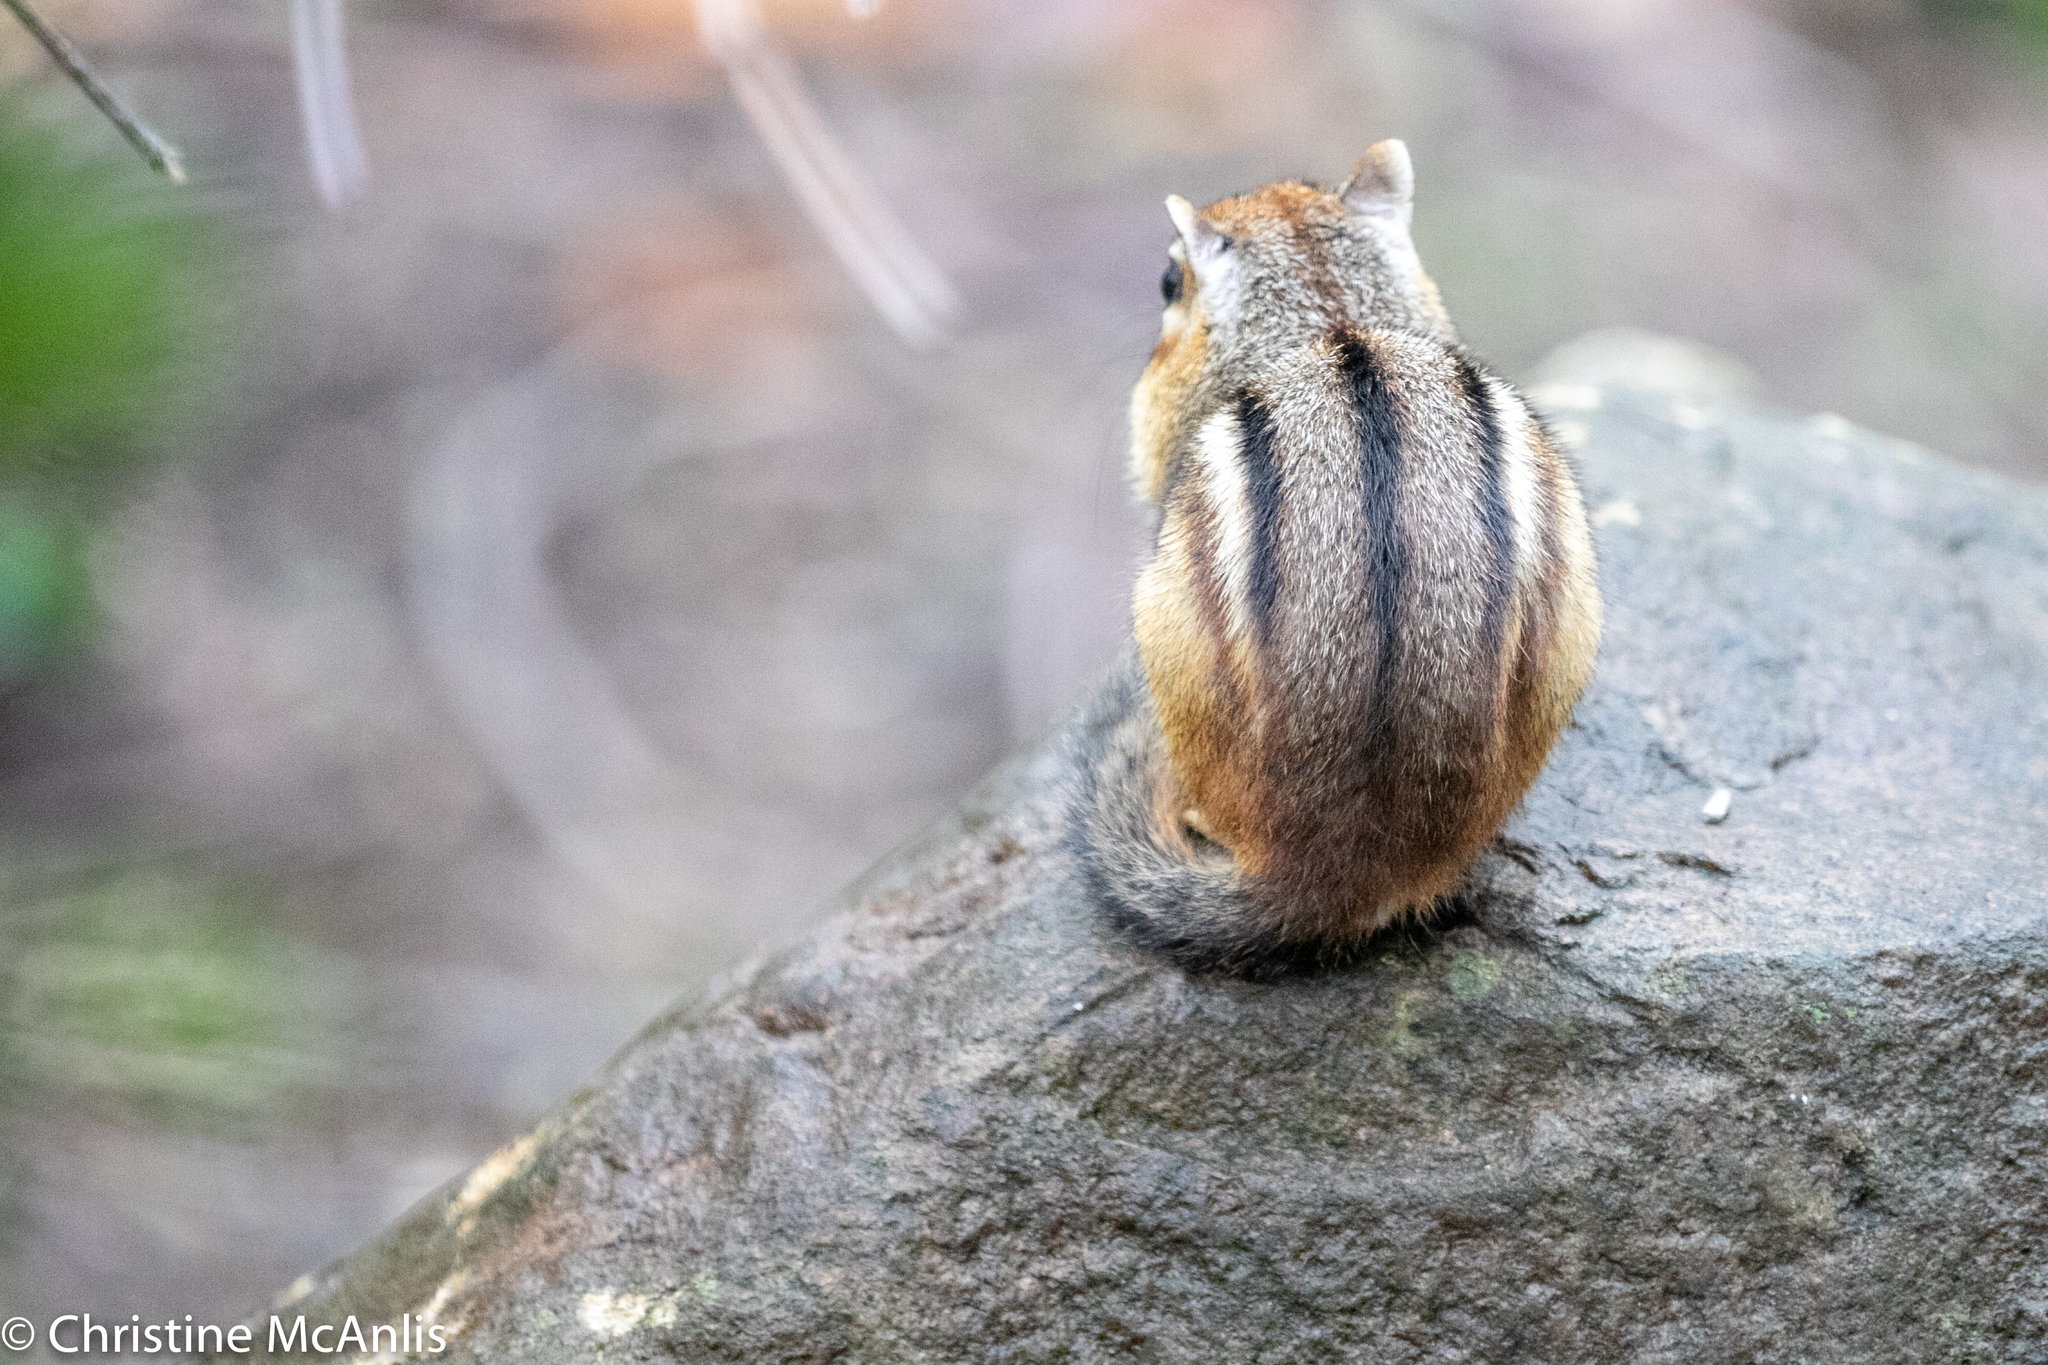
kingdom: Animalia
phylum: Chordata
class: Mammalia
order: Rodentia
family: Sciuridae
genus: Tamias
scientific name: Tamias striatus
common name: Eastern chipmunk
